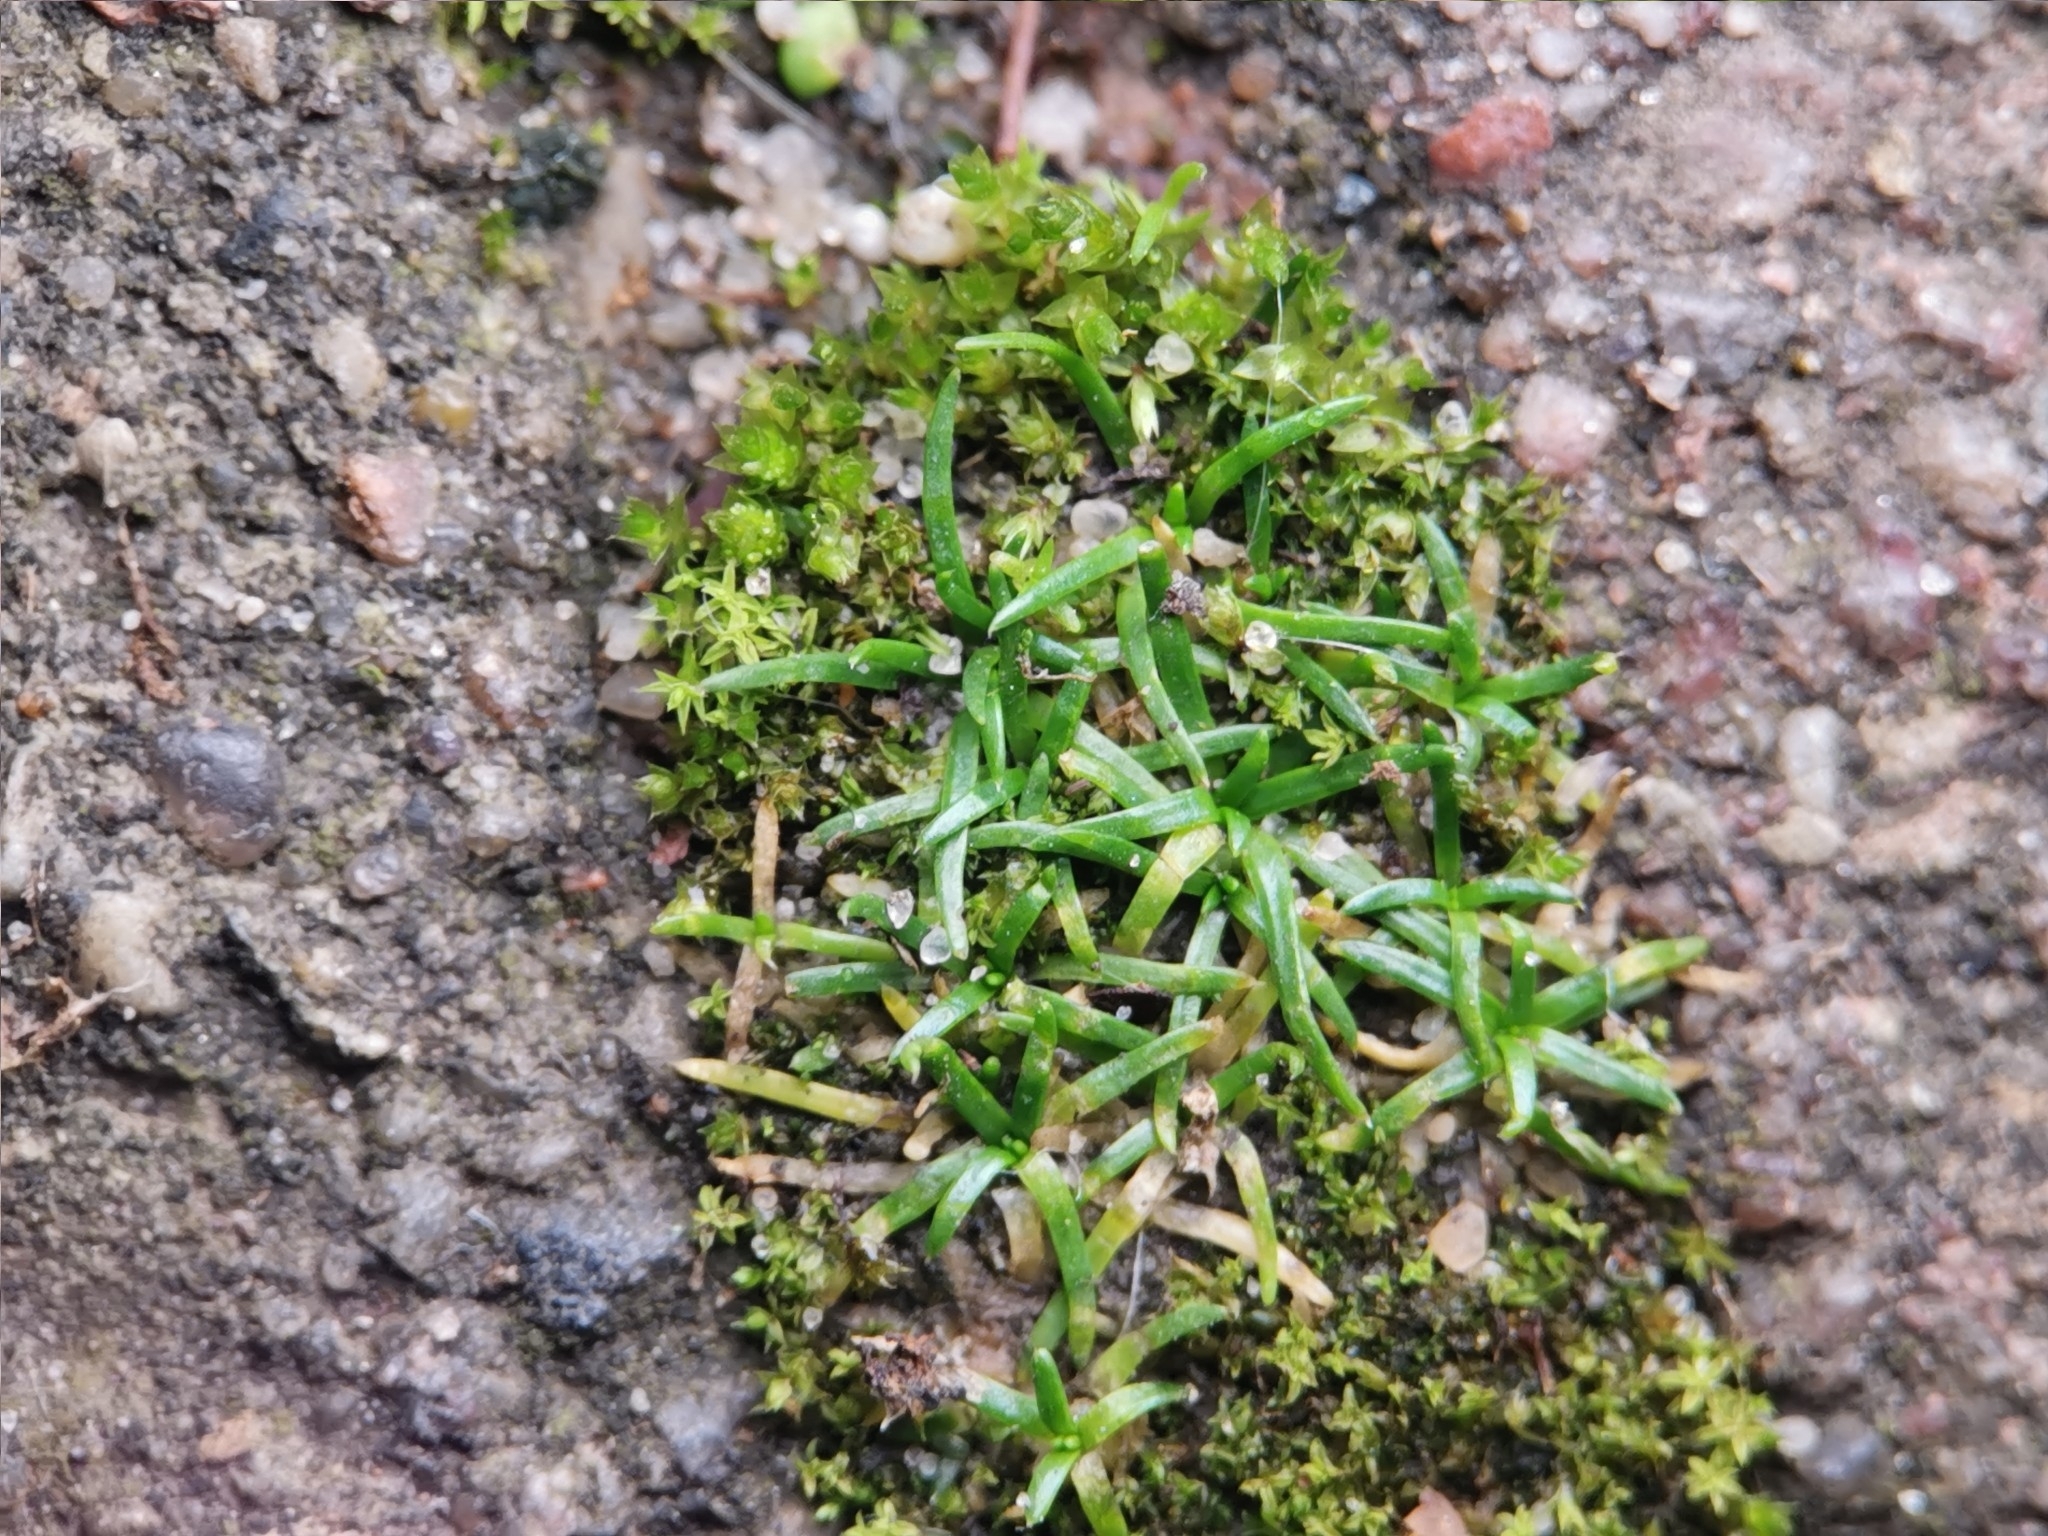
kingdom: Plantae
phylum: Tracheophyta
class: Magnoliopsida
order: Caryophyllales
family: Caryophyllaceae
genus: Sagina
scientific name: Sagina procumbens
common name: Procumbent pearlwort
